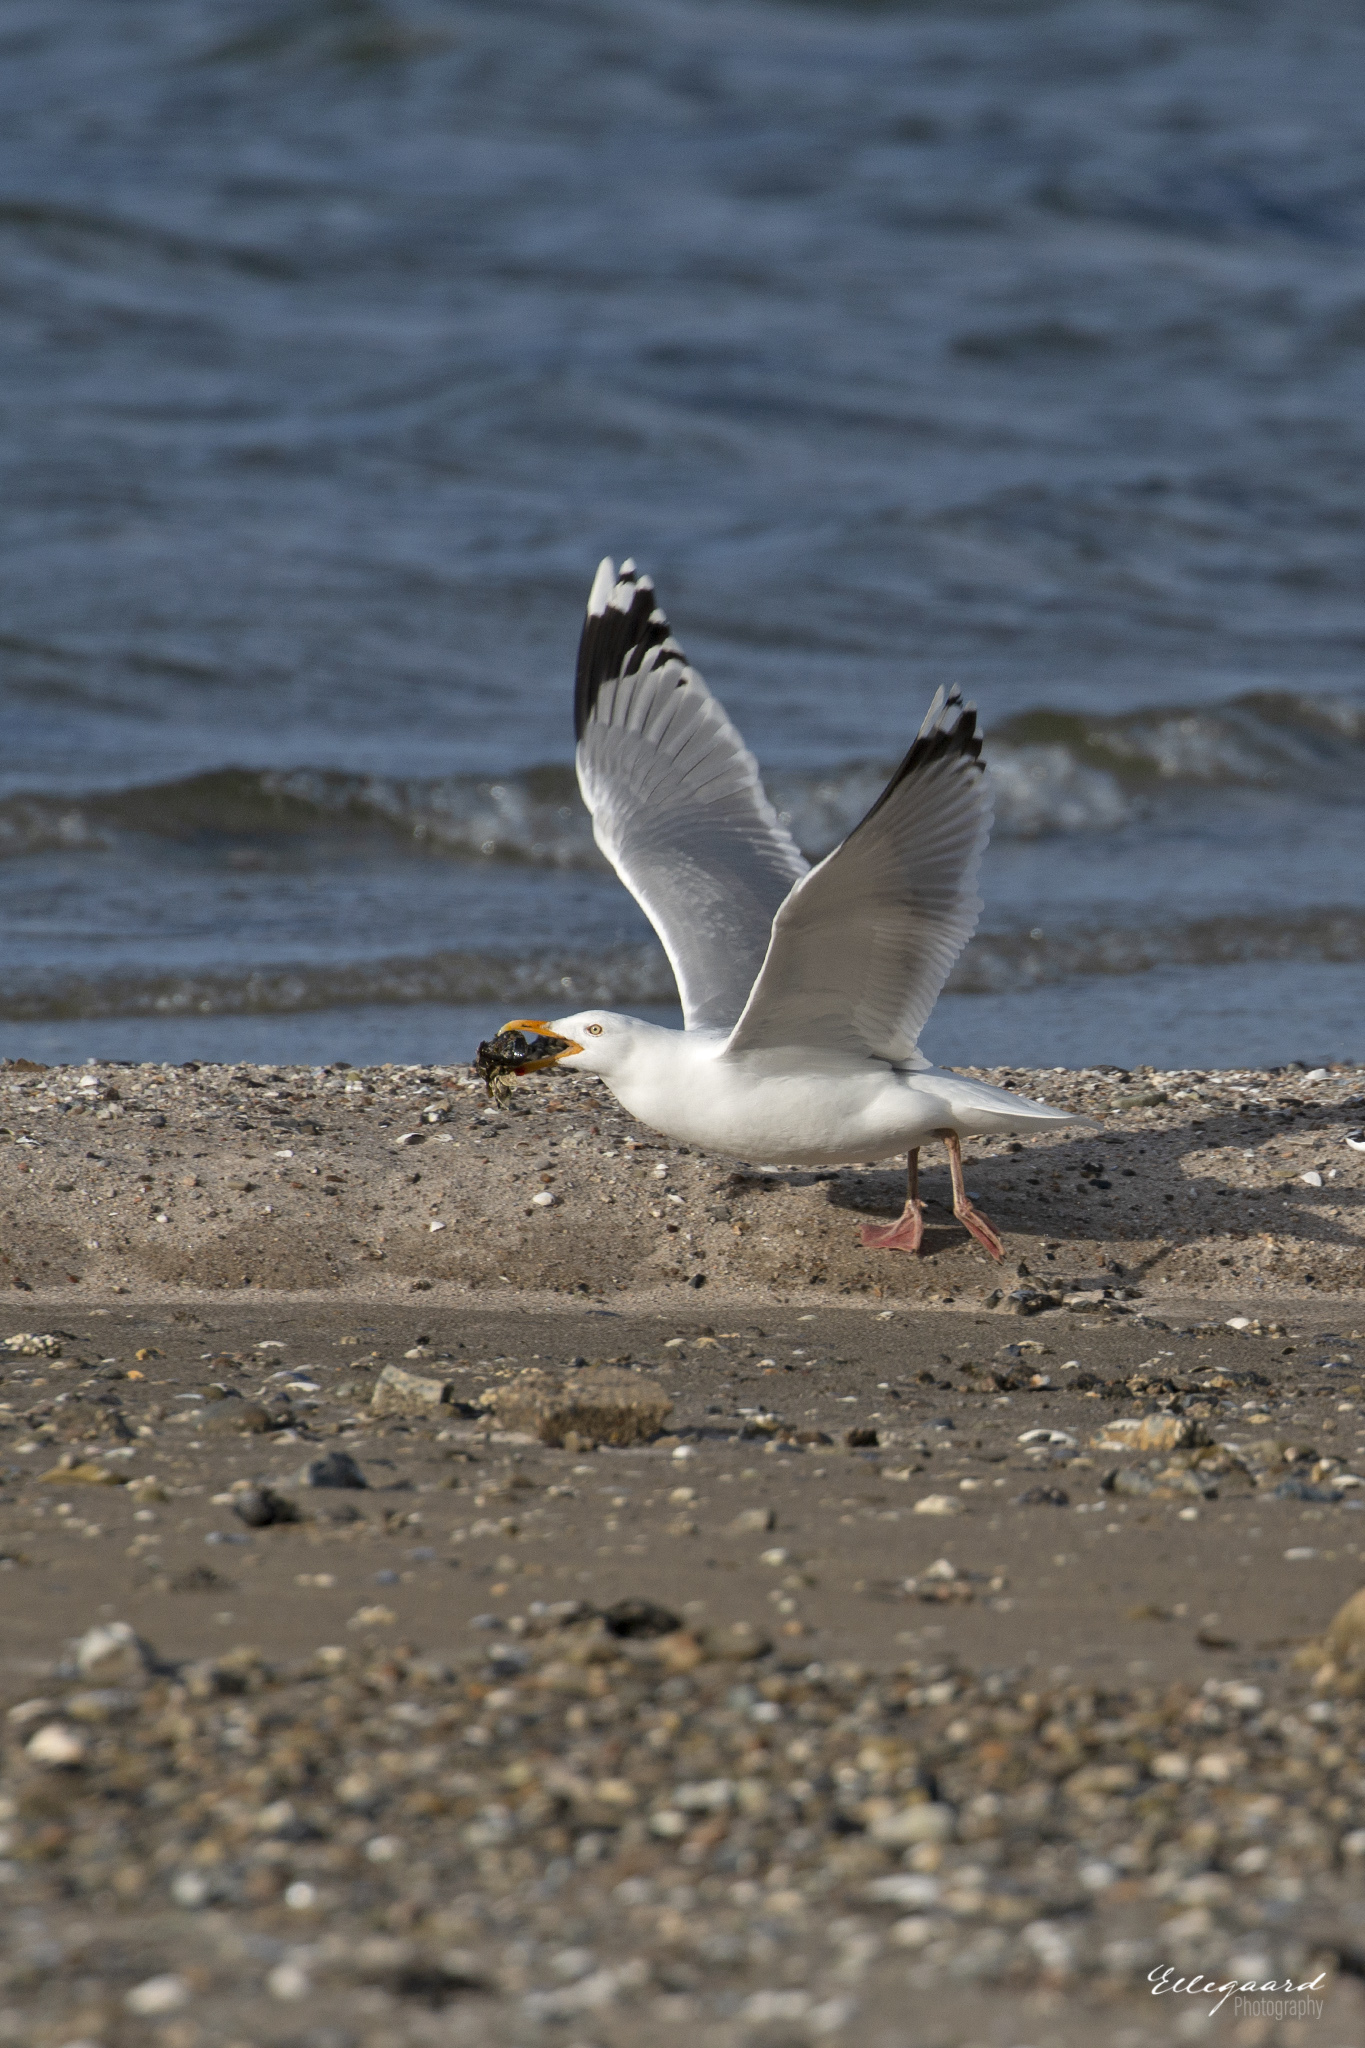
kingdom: Animalia
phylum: Chordata
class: Aves
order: Charadriiformes
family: Laridae
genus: Larus
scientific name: Larus argentatus
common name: Herring gull
